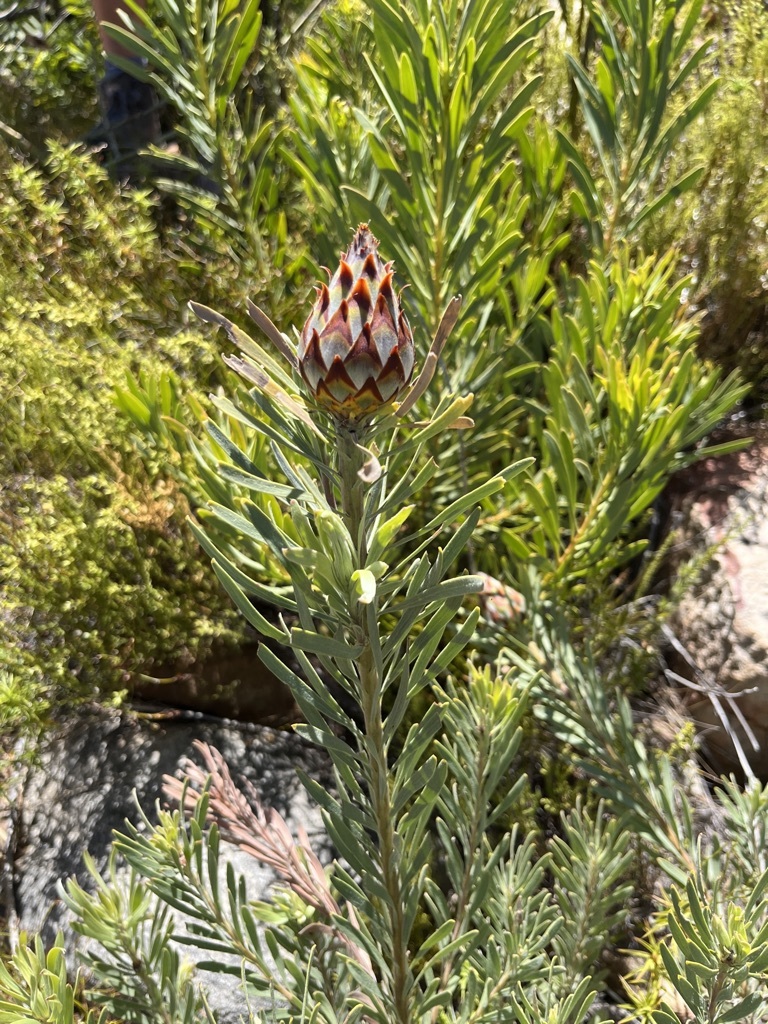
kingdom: Plantae
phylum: Tracheophyta
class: Magnoliopsida
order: Proteales
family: Proteaceae
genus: Leucadendron
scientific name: Leucadendron rubrum
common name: Spinning top
